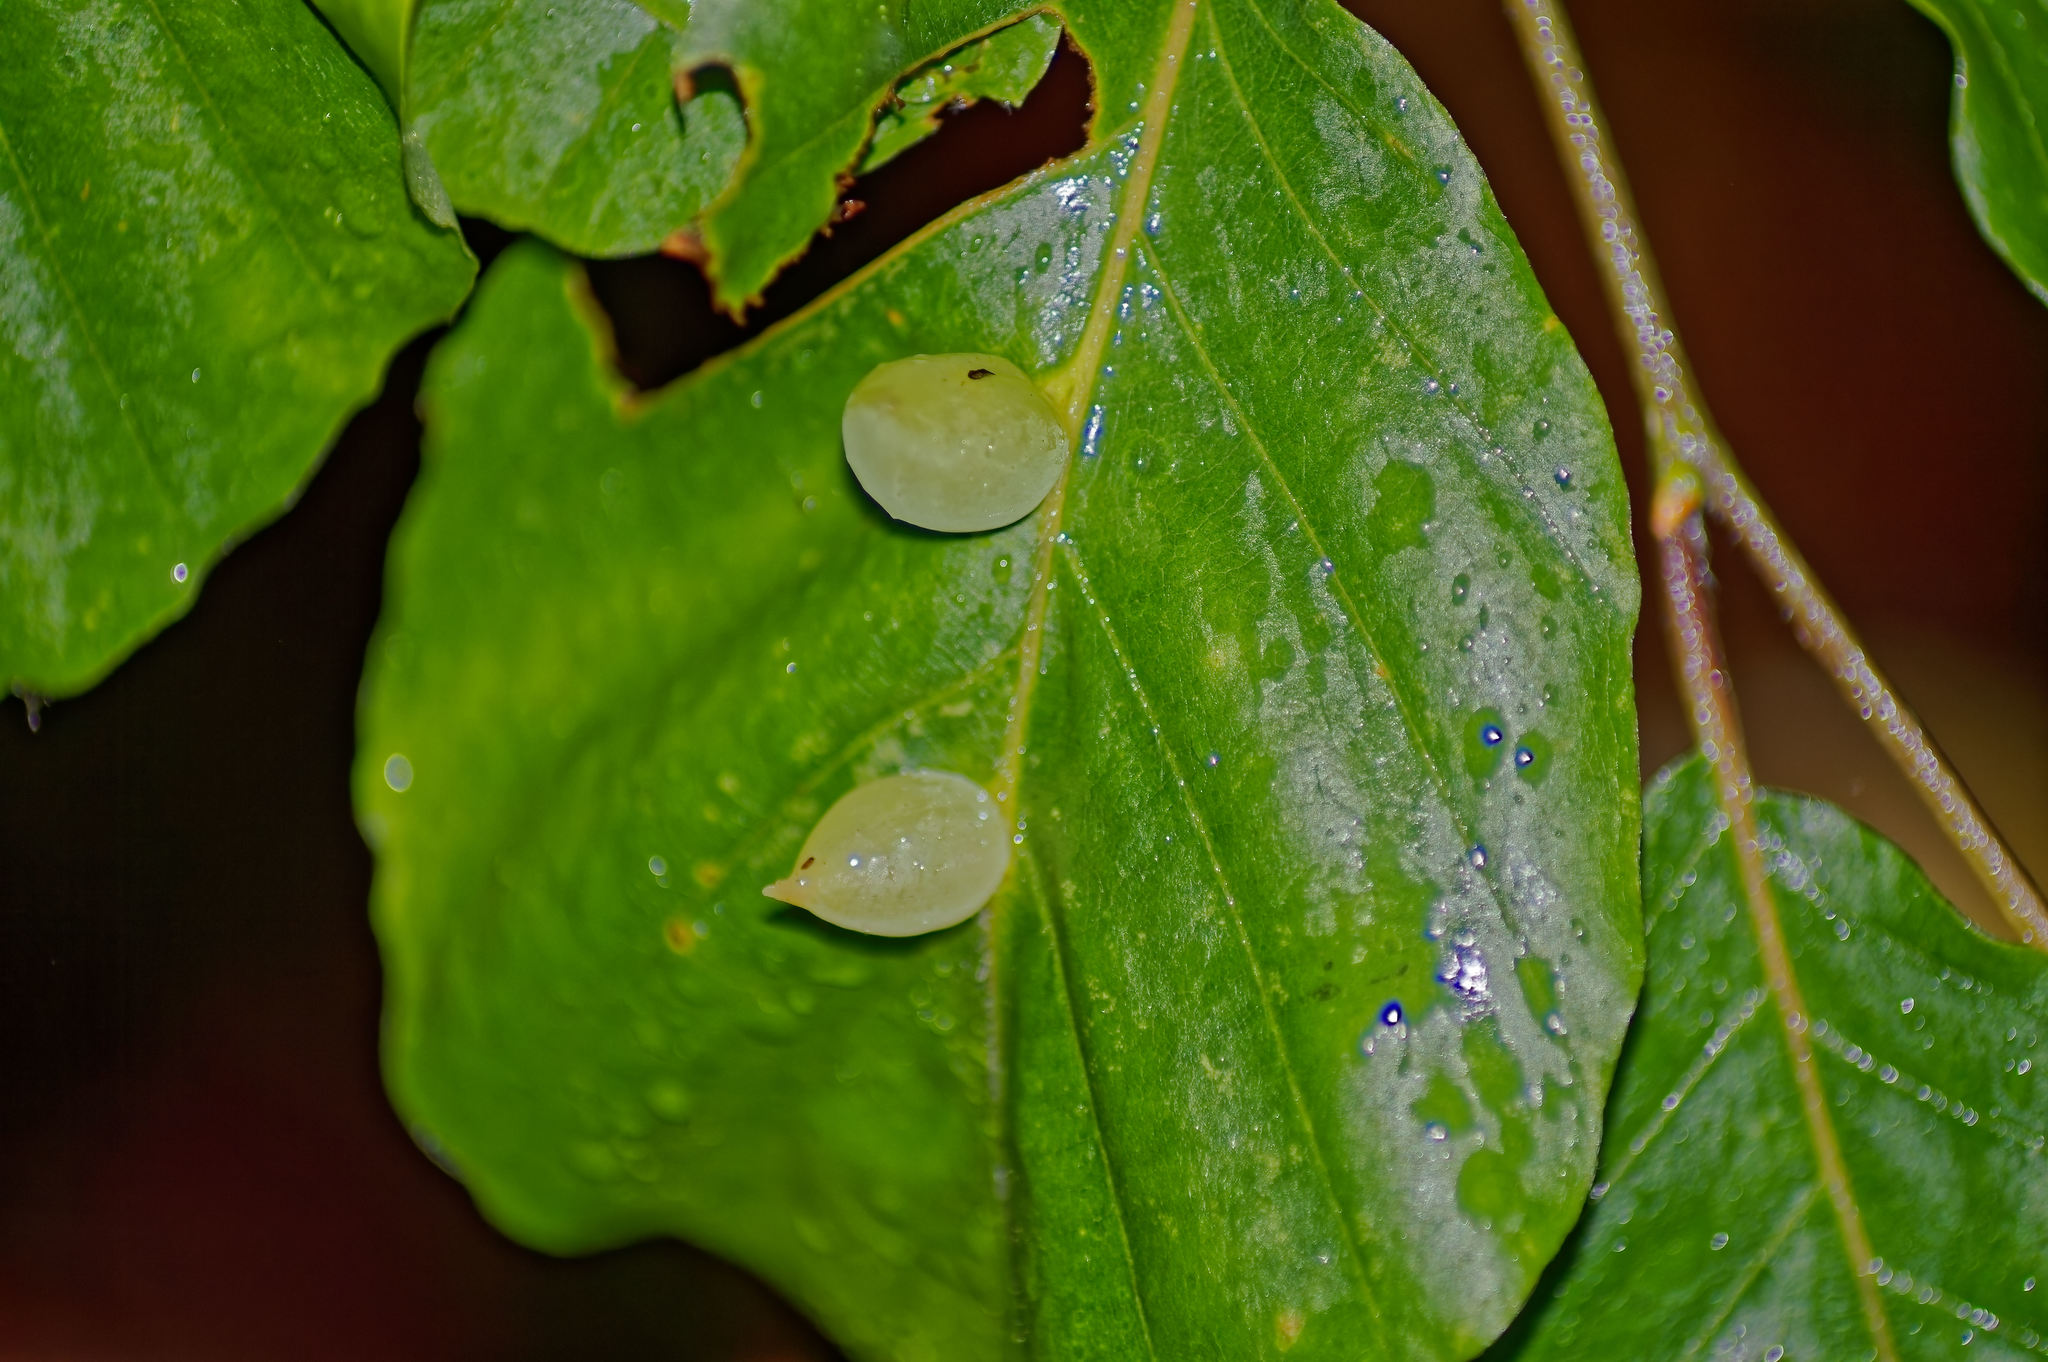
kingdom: Animalia
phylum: Arthropoda
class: Insecta
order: Diptera
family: Cecidomyiidae
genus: Mikiola
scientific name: Mikiola fagi
